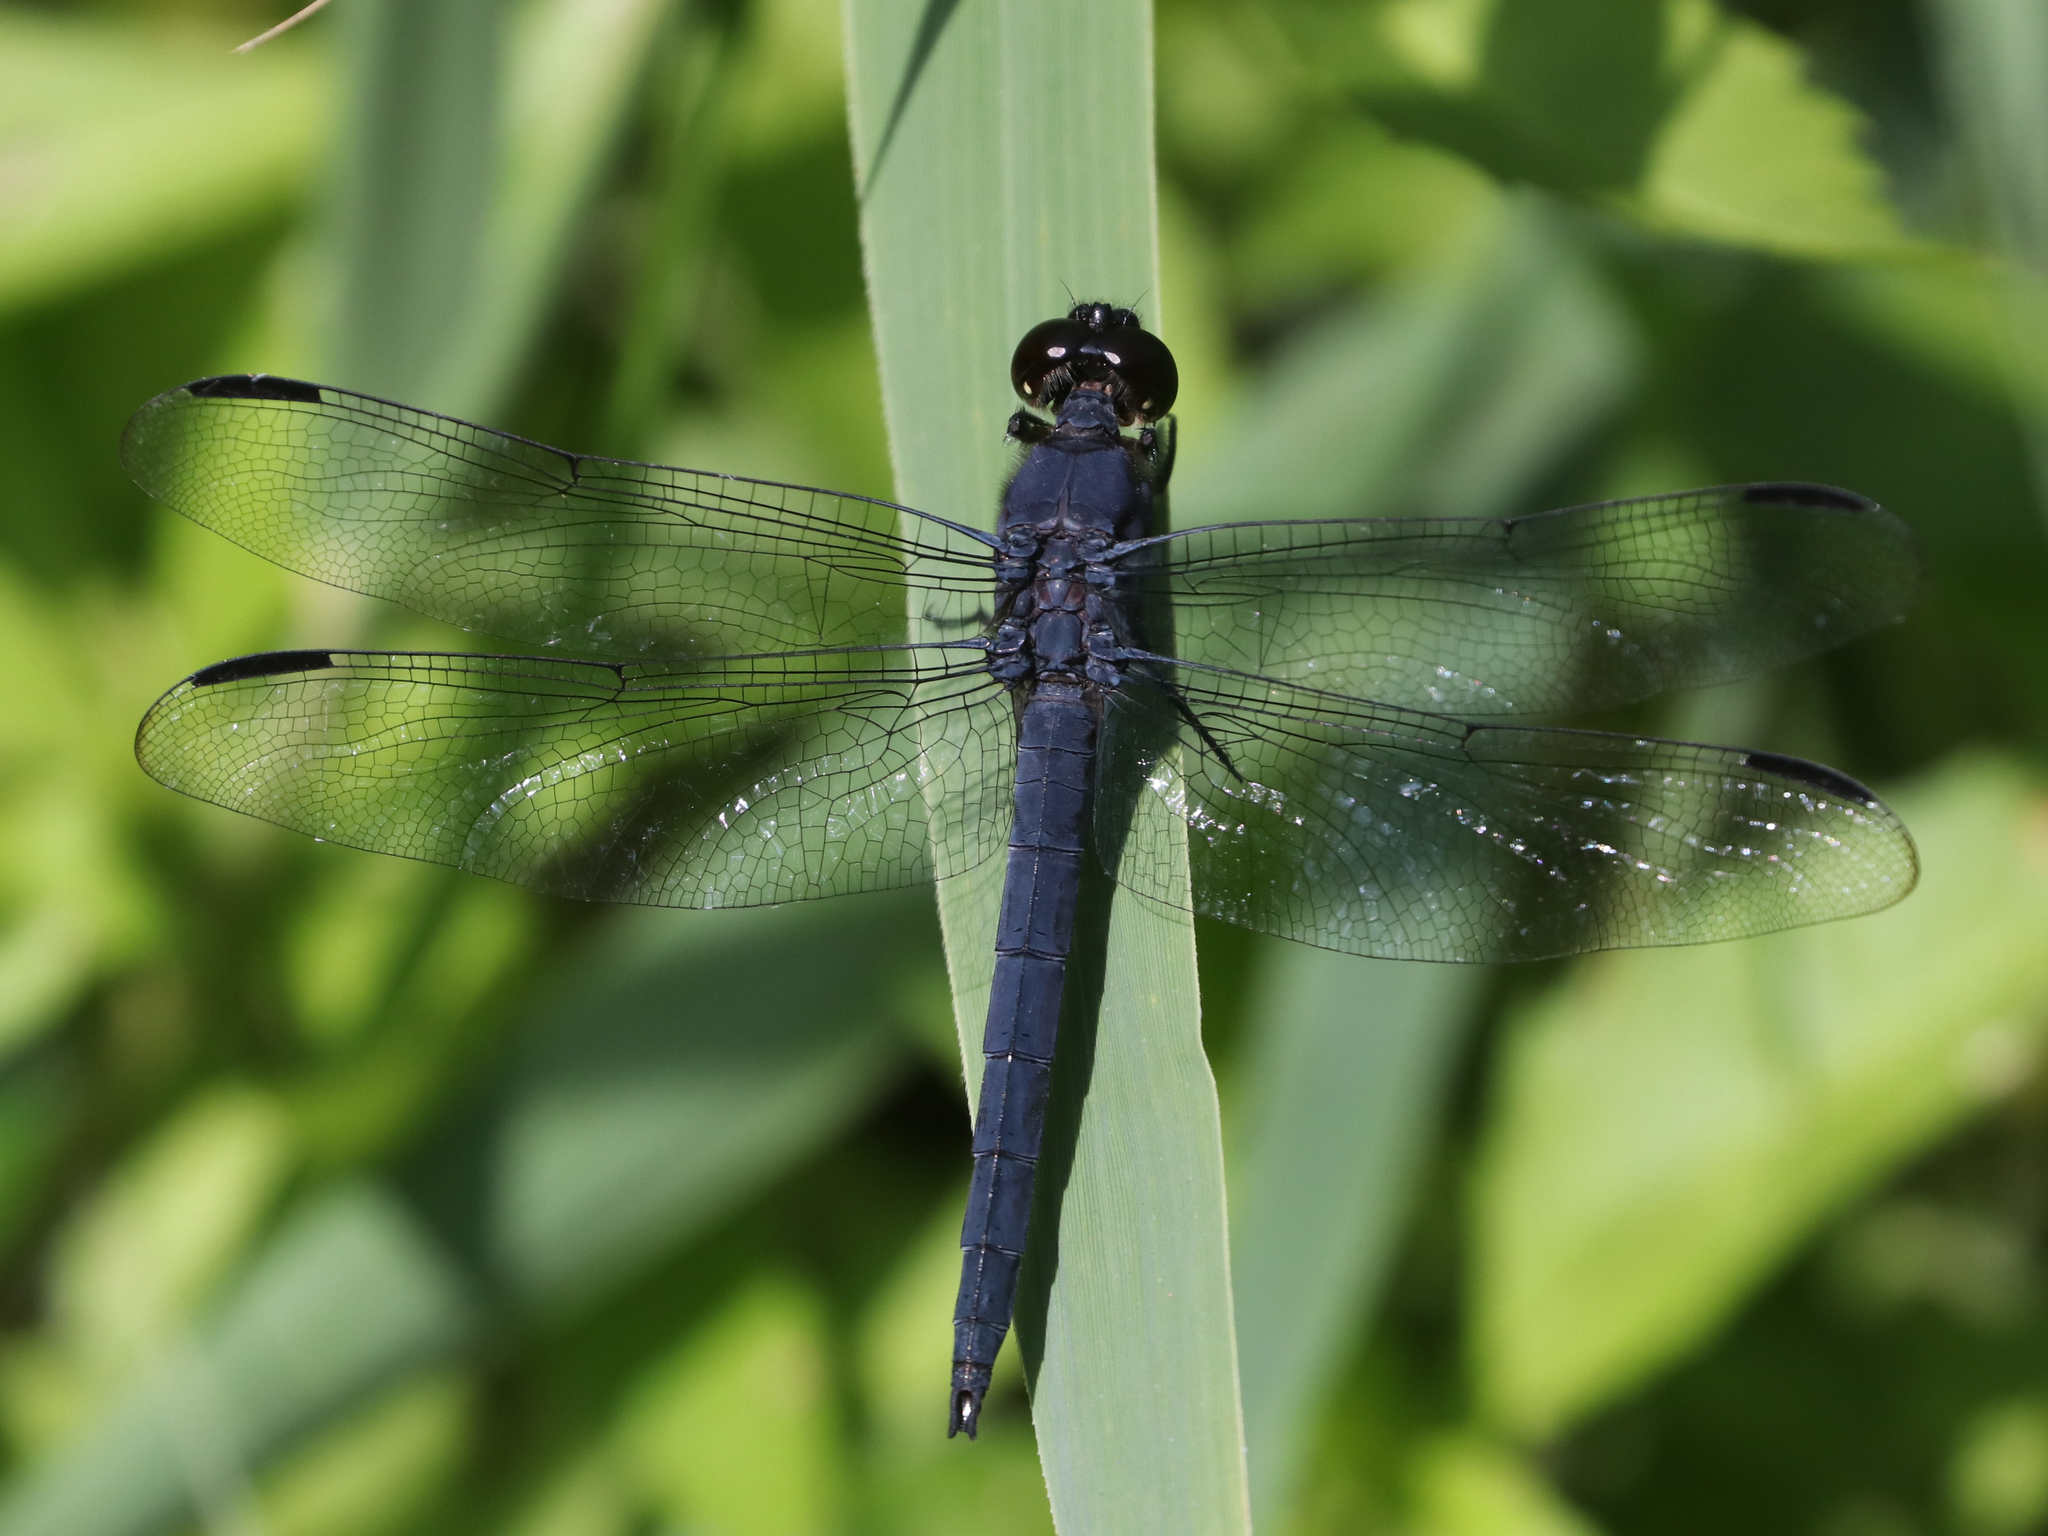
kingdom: Animalia
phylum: Arthropoda
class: Insecta
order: Odonata
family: Libellulidae
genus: Libellula
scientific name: Libellula incesta
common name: Slaty skimmer
